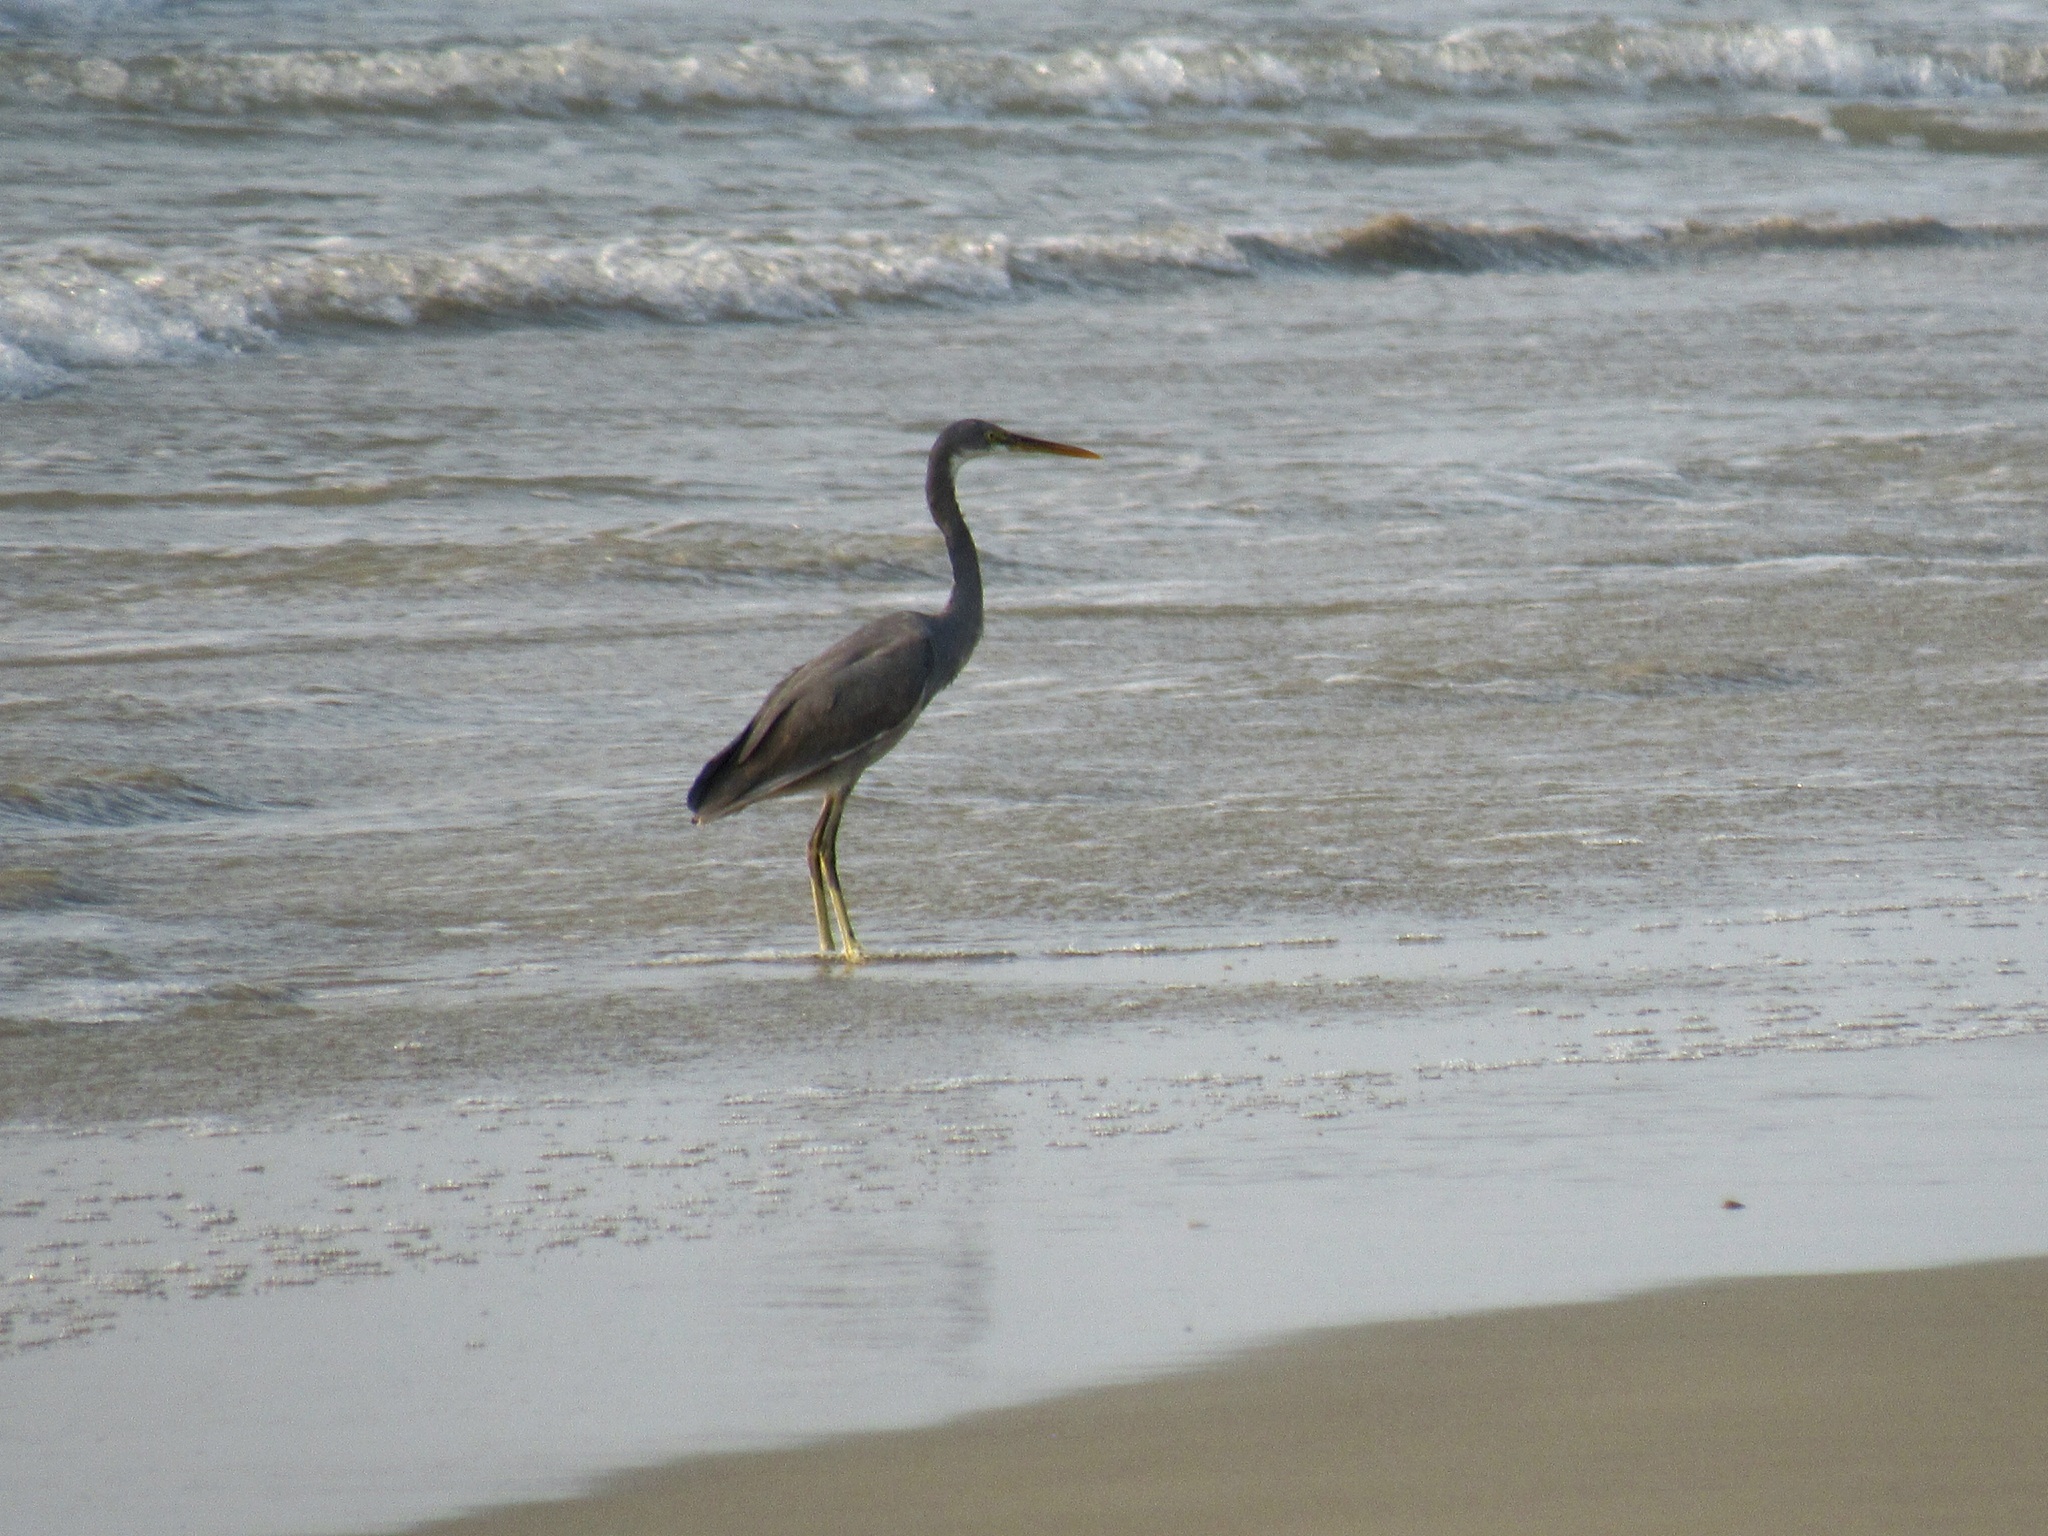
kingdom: Animalia
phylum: Chordata
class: Aves
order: Pelecaniformes
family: Ardeidae
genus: Egretta
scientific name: Egretta gularis
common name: Western reef-heron
